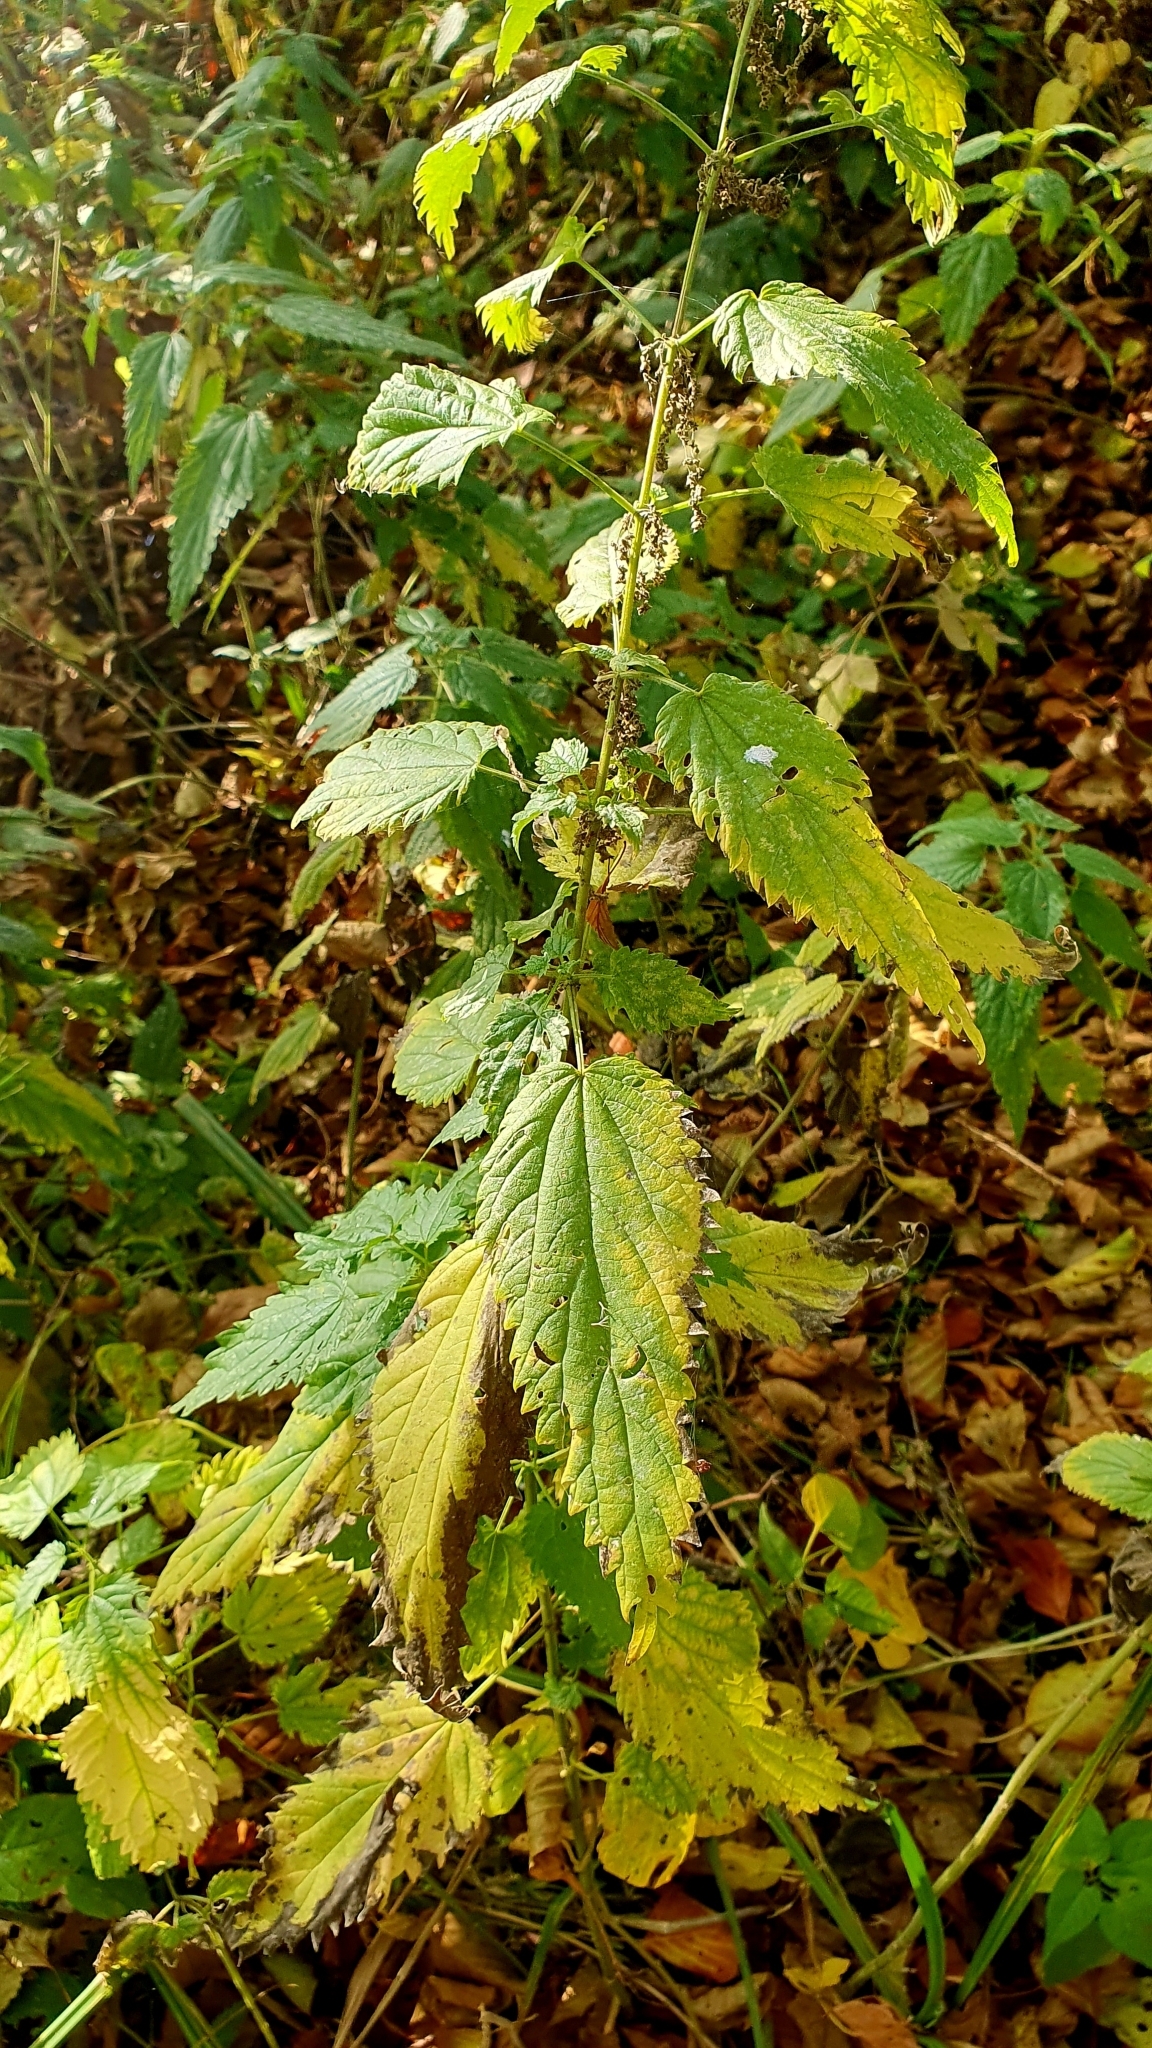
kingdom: Plantae
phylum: Tracheophyta
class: Magnoliopsida
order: Rosales
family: Urticaceae
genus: Urtica
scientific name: Urtica dioica
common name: Common nettle
